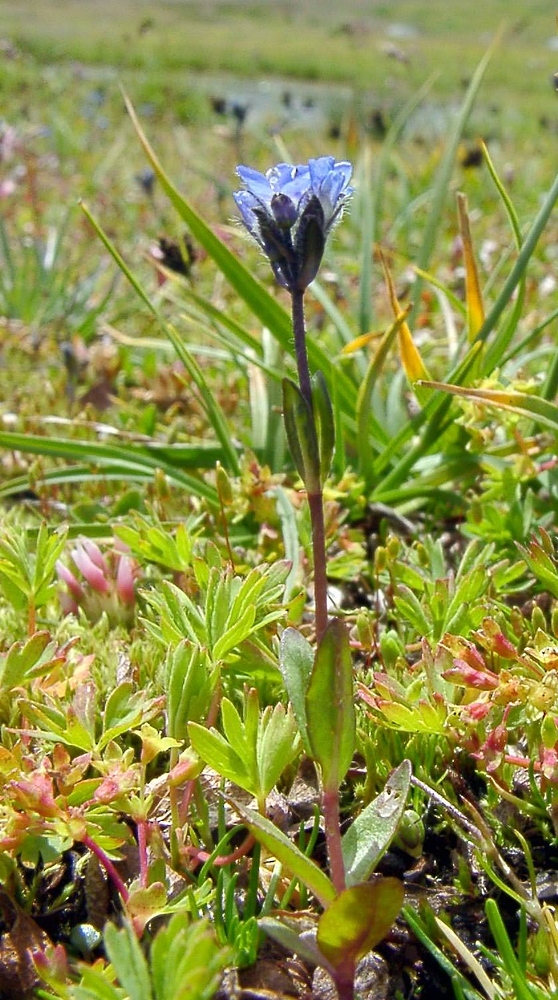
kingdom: Plantae
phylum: Tracheophyta
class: Magnoliopsida
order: Lamiales
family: Plantaginaceae
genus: Veronica
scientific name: Veronica alpina
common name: Alpine speedwell
